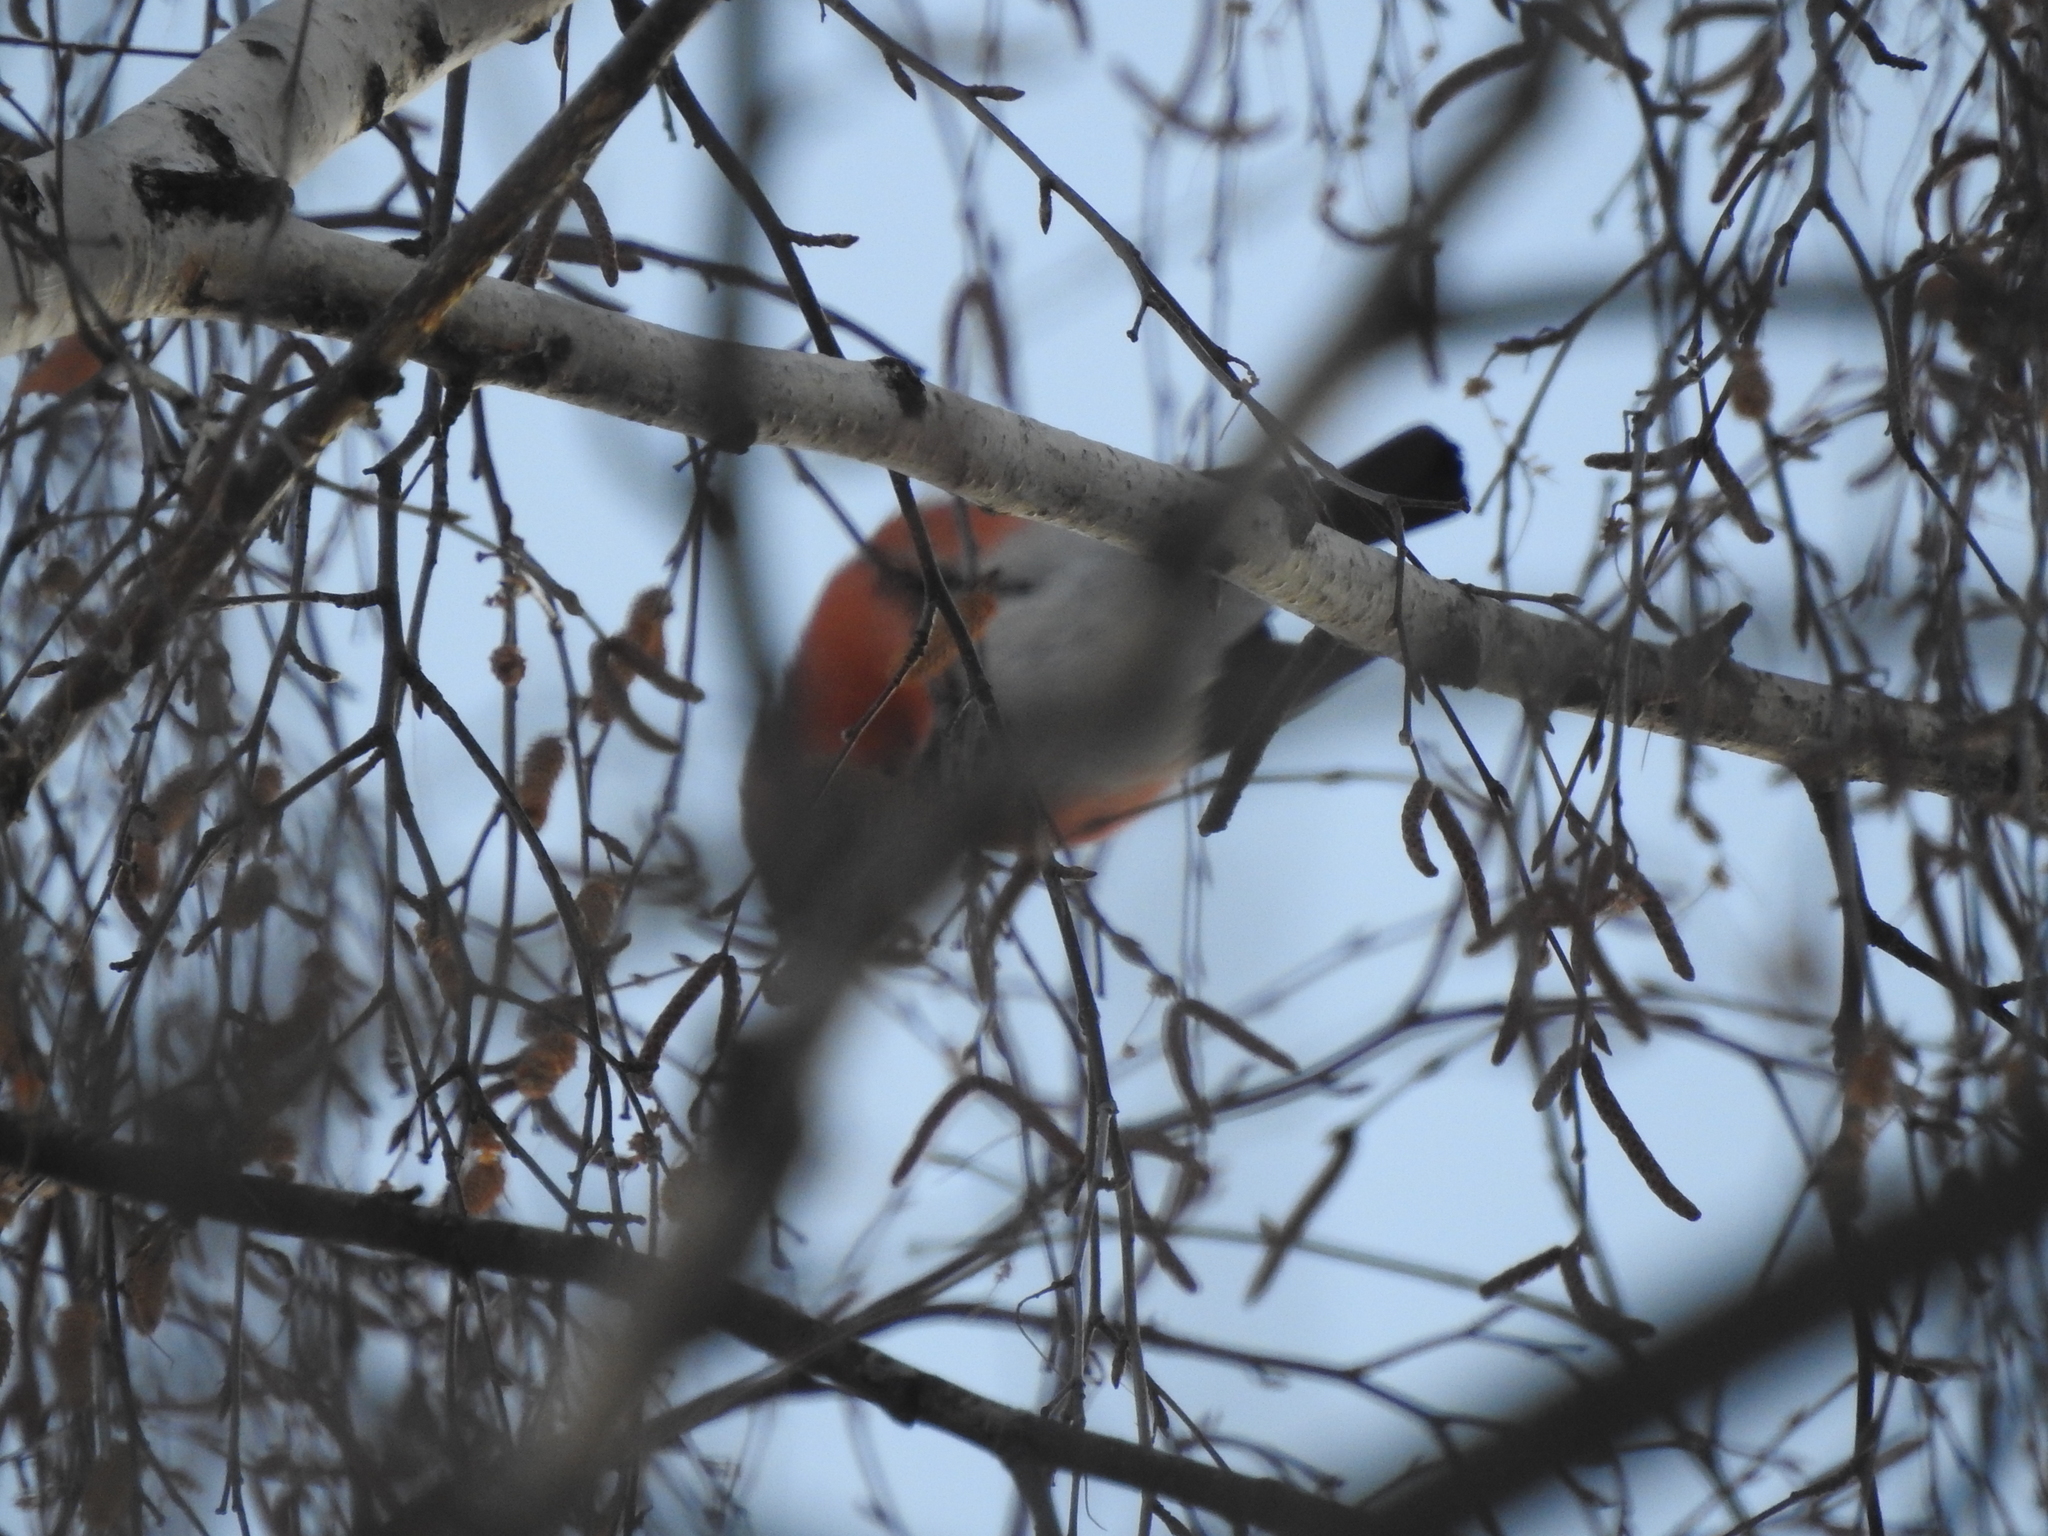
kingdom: Animalia
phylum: Chordata
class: Aves
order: Passeriformes
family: Fringillidae
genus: Pyrrhula
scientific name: Pyrrhula pyrrhula
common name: Eurasian bullfinch
